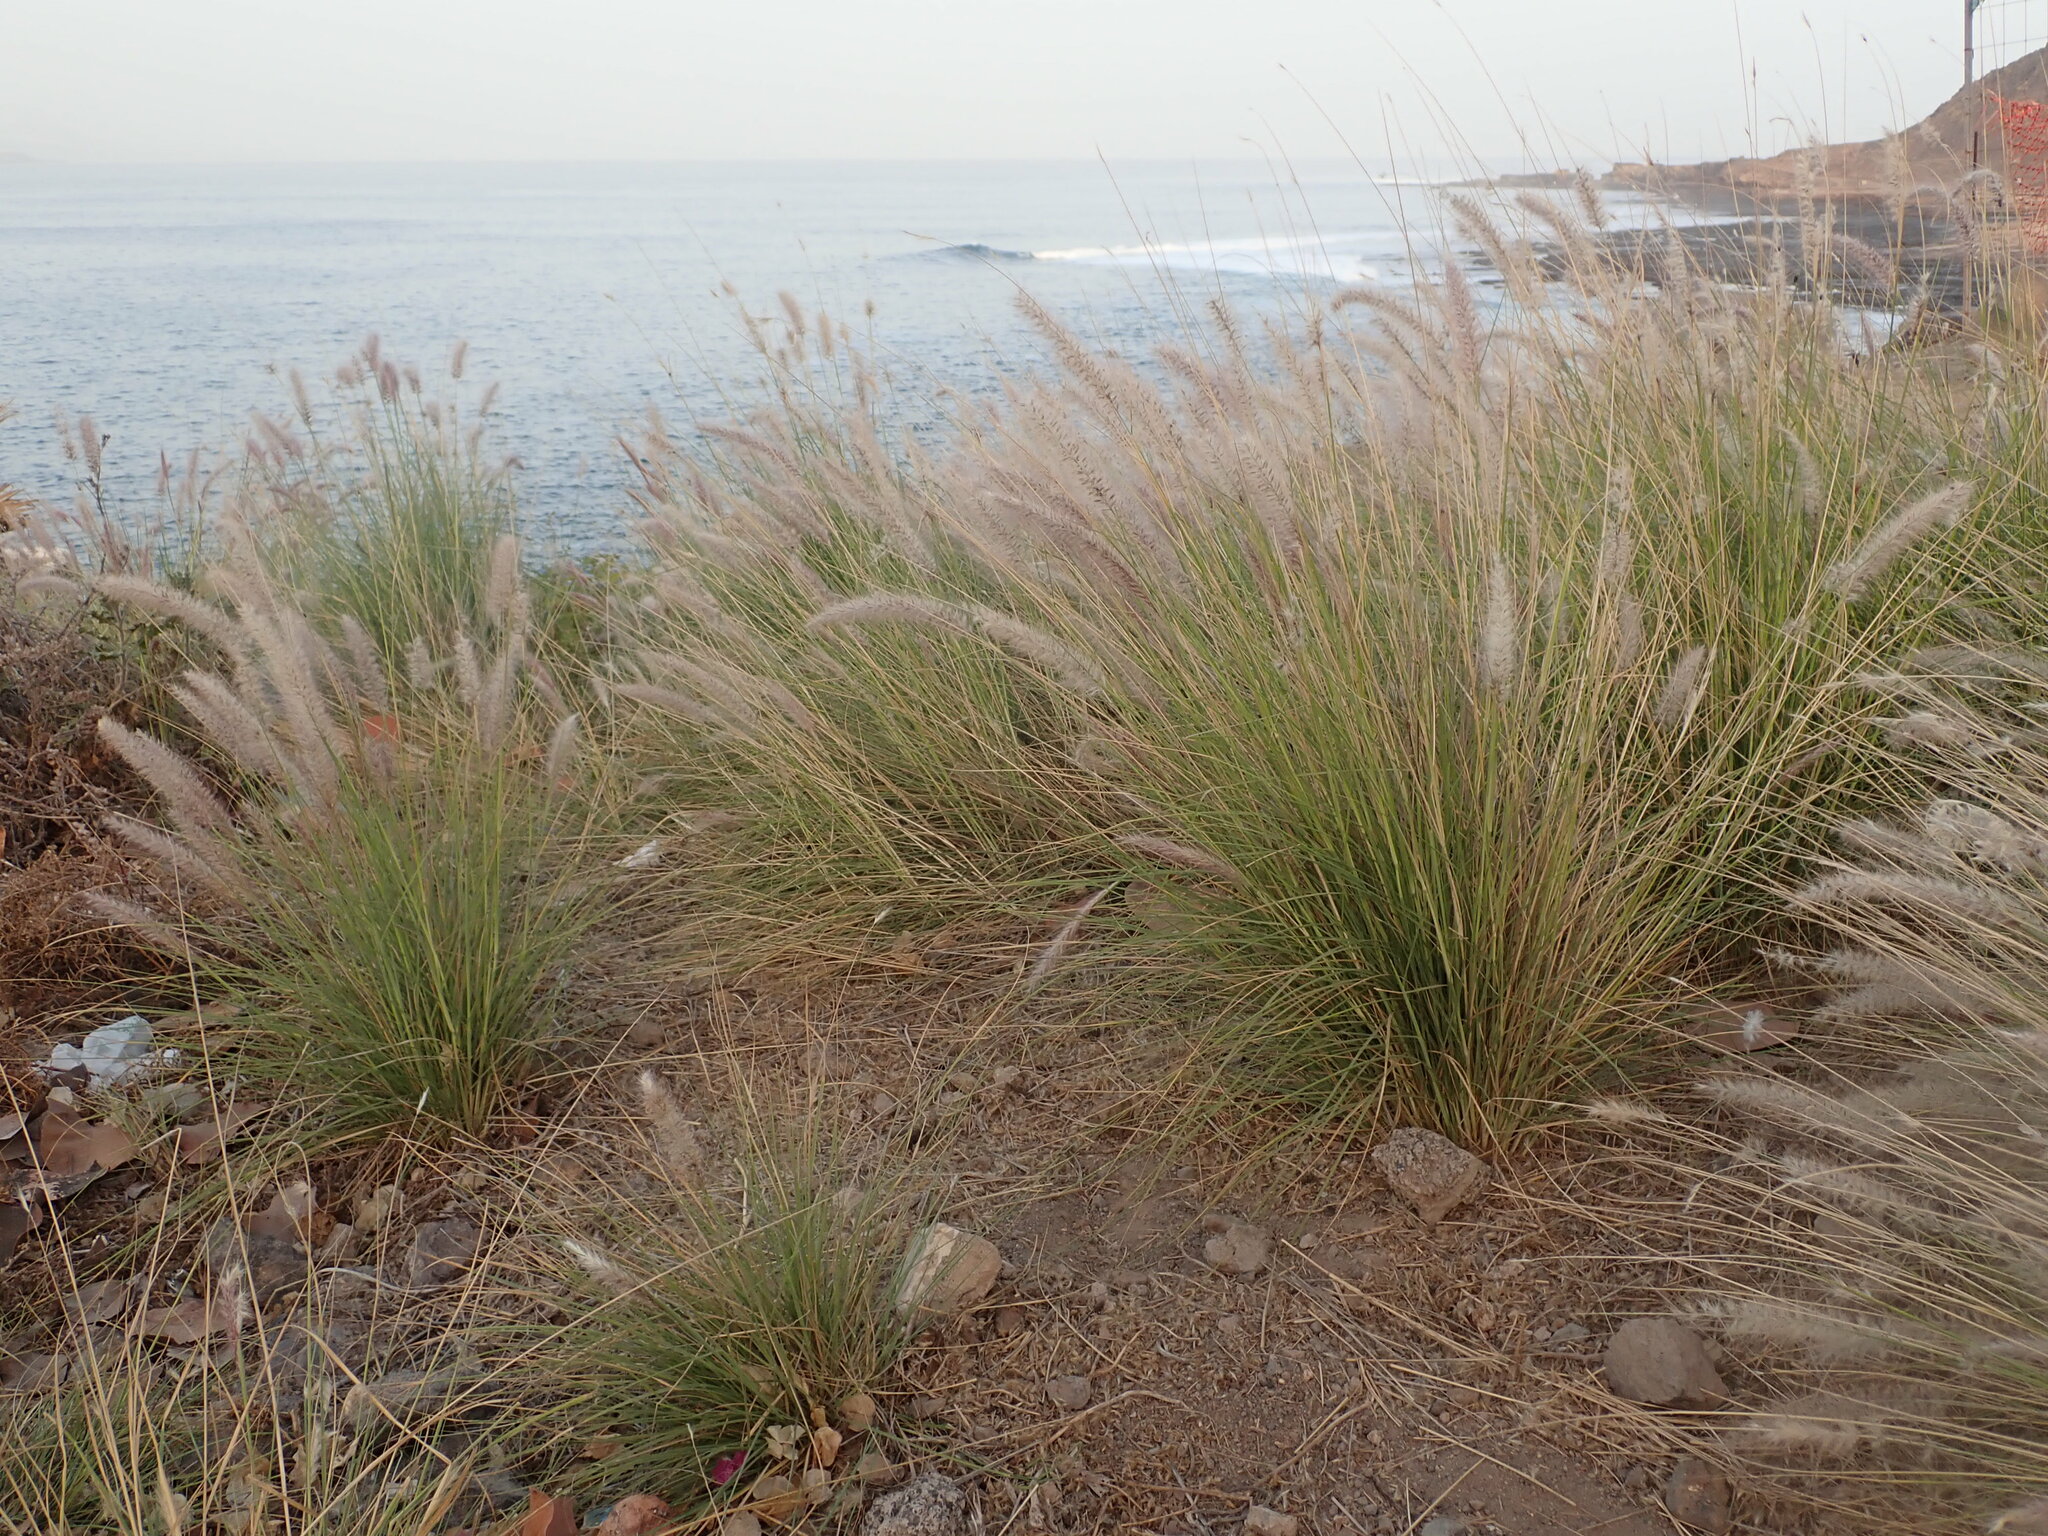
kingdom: Plantae
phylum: Tracheophyta
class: Liliopsida
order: Poales
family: Poaceae
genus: Cenchrus
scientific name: Cenchrus setaceus
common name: Crimson fountaingrass
